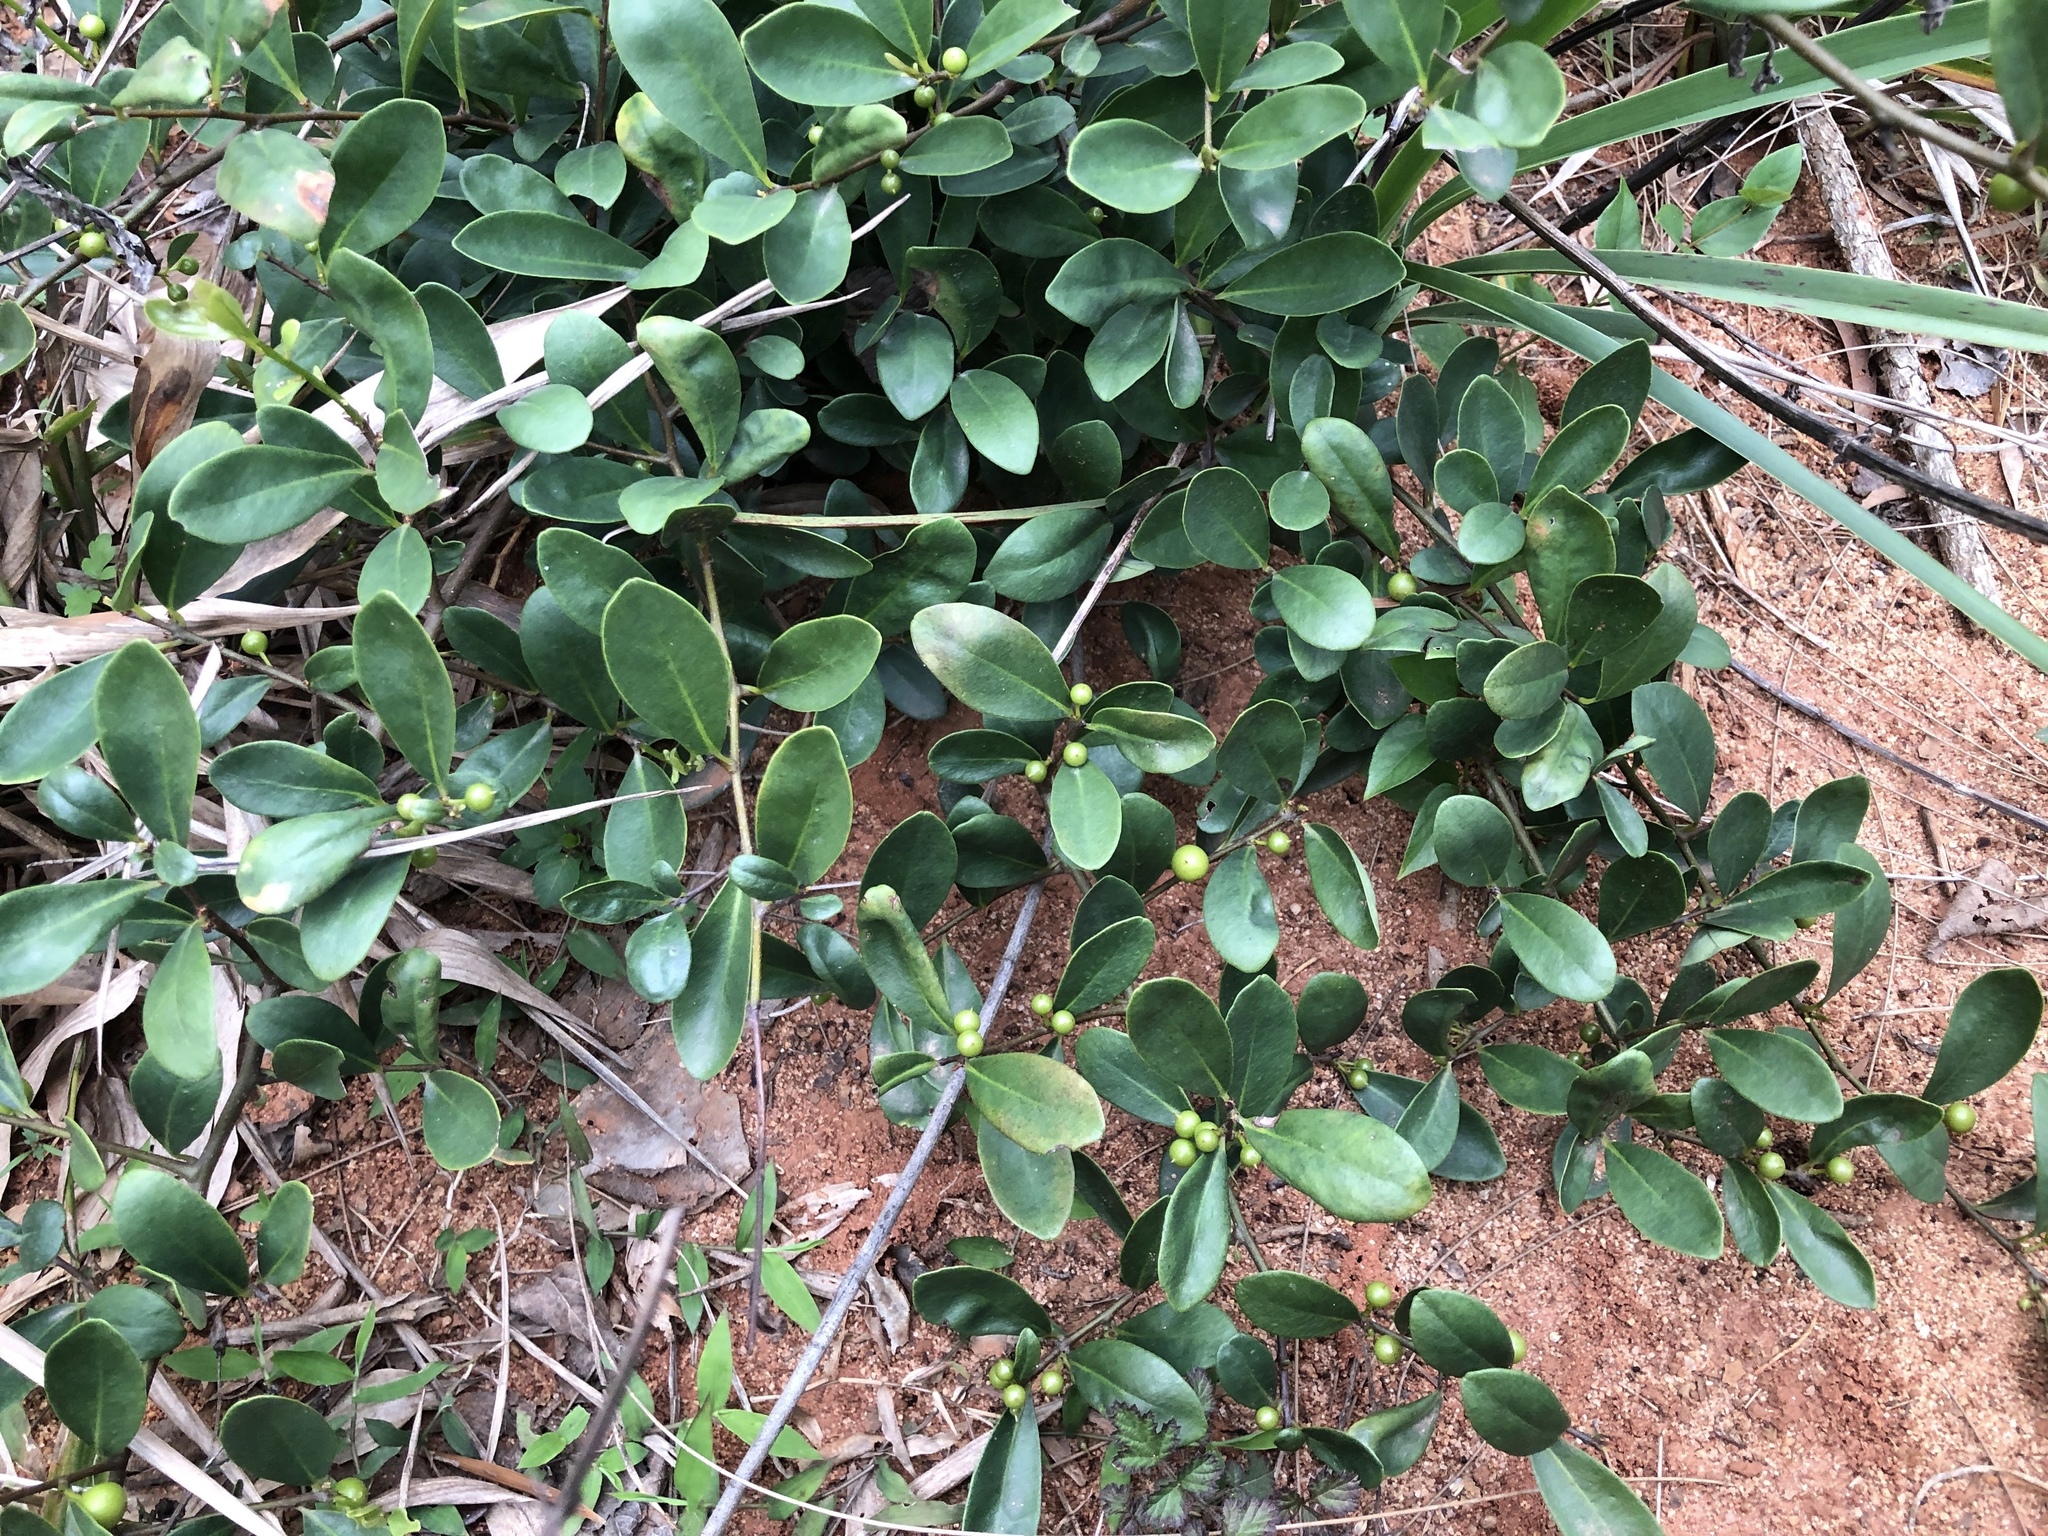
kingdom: Plantae
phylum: Tracheophyta
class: Magnoliopsida
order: Ericales
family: Primulaceae
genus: Embelia
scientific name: Embelia laeta
